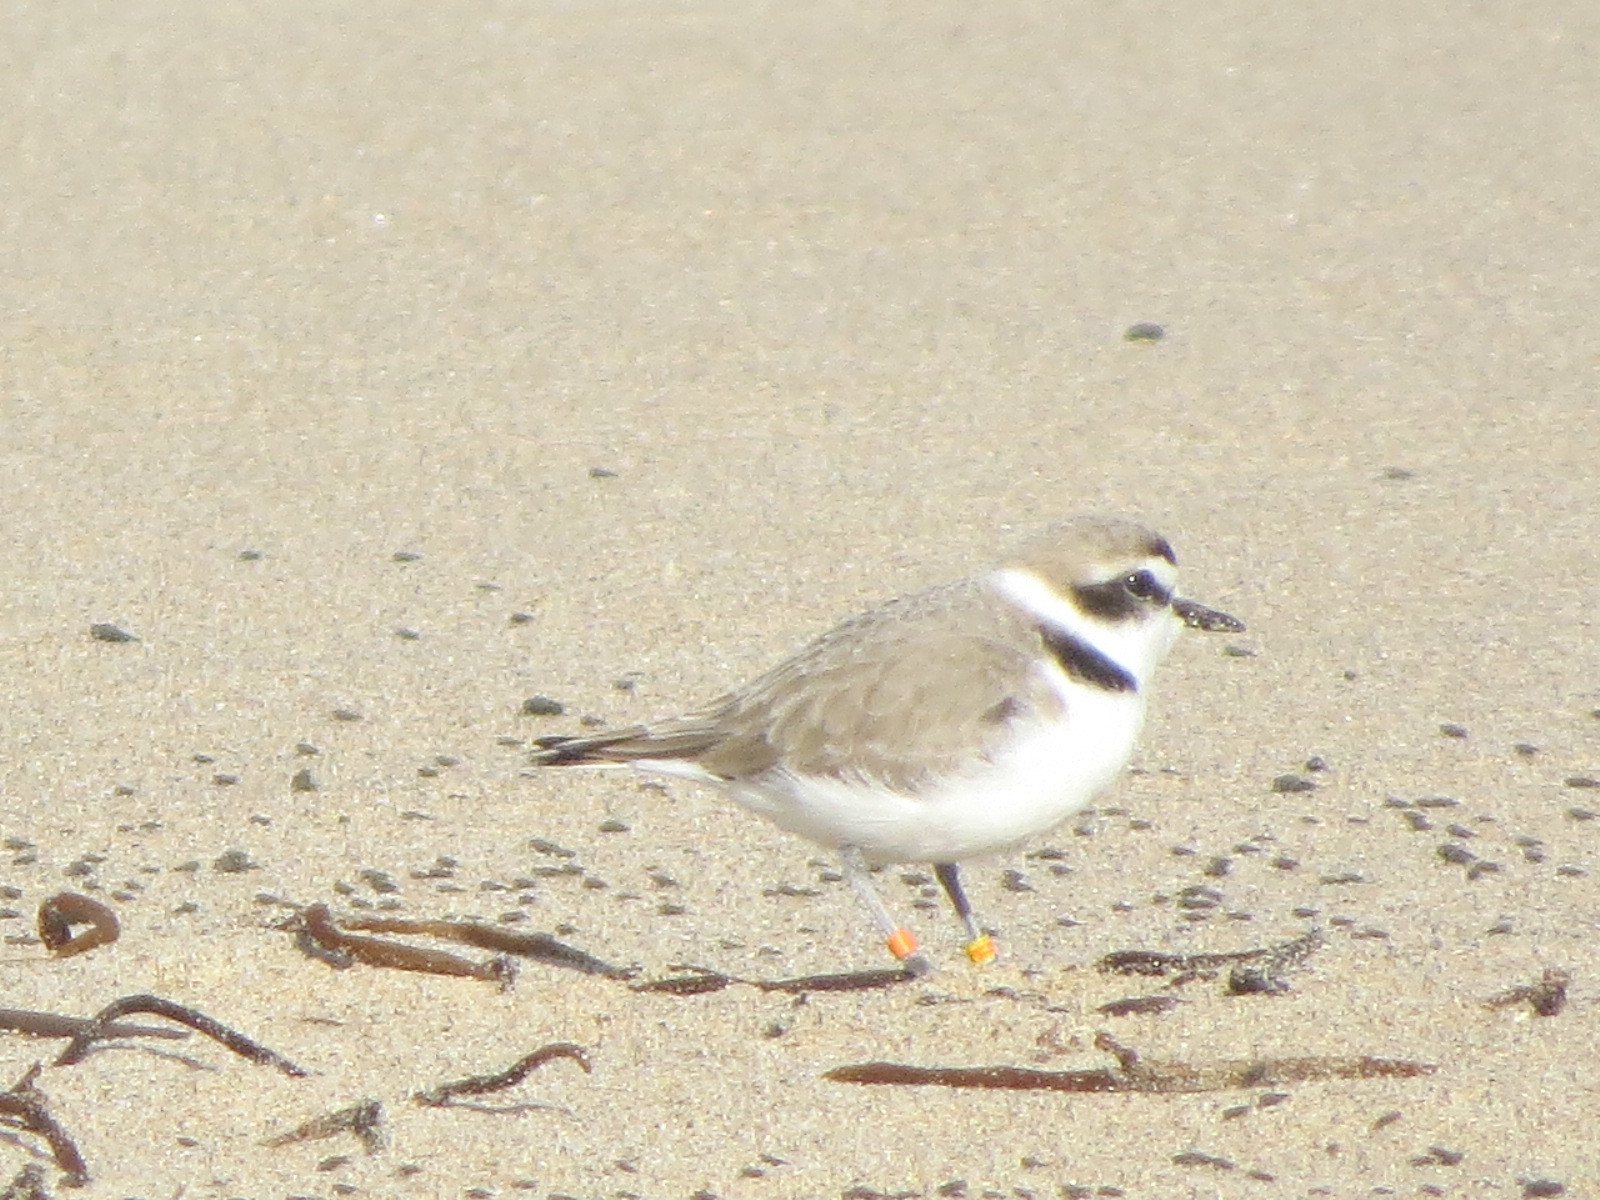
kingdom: Animalia
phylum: Chordata
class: Aves
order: Charadriiformes
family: Charadriidae
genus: Anarhynchus
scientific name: Anarhynchus
